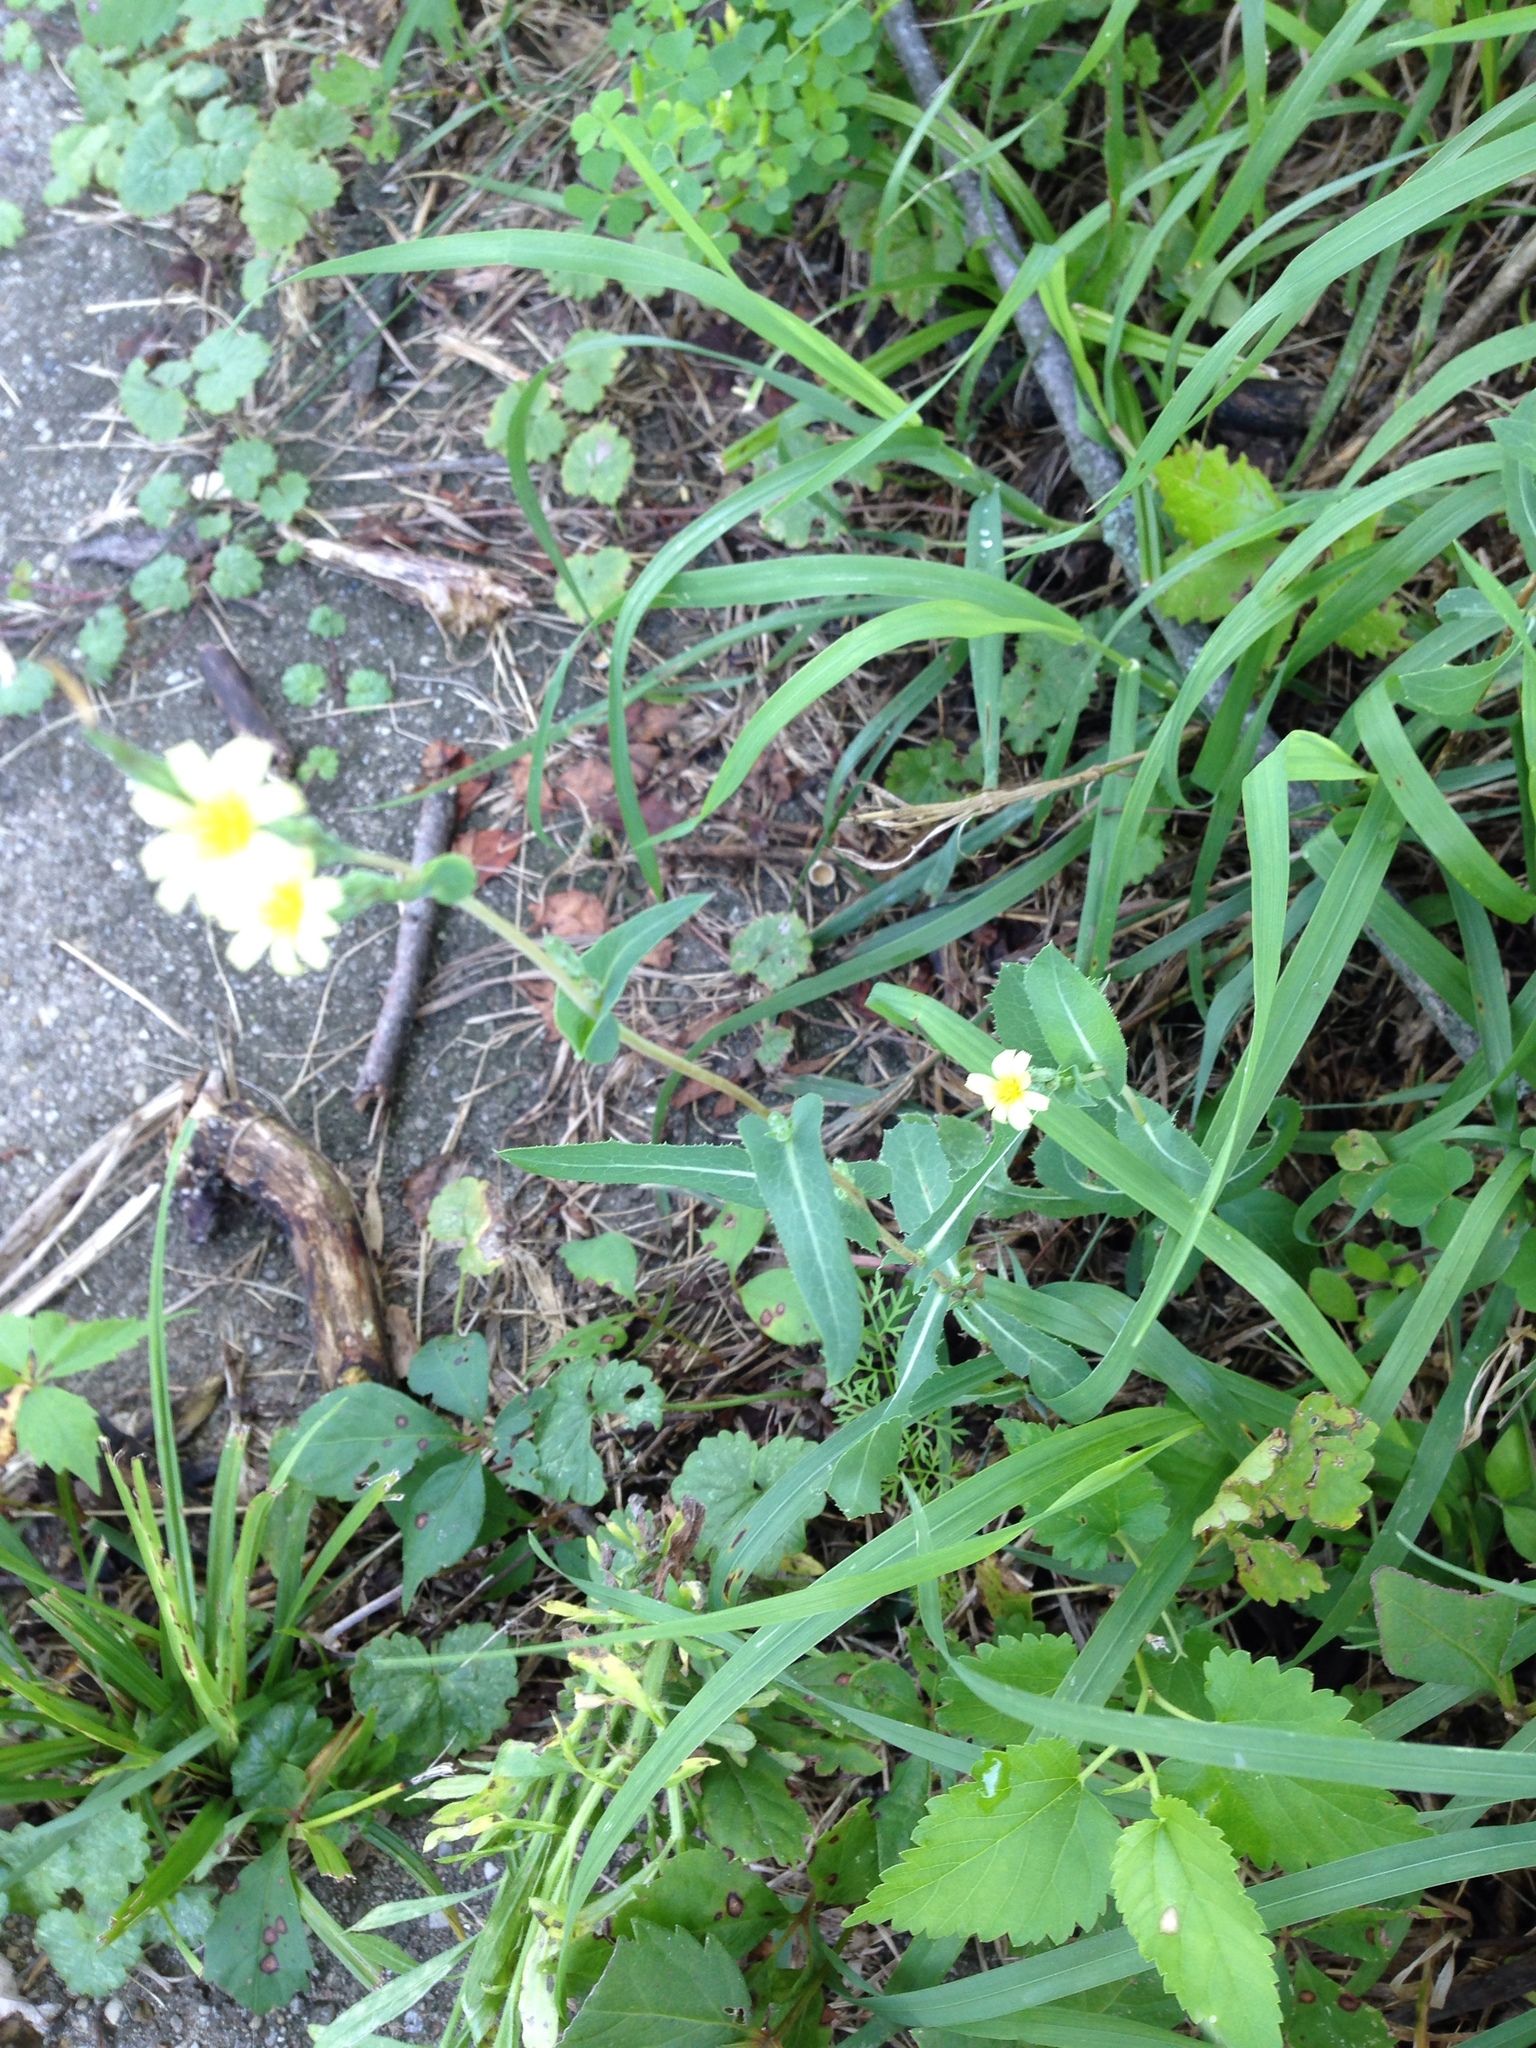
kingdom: Plantae
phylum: Tracheophyta
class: Magnoliopsida
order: Asterales
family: Asteraceae
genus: Lactuca
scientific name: Lactuca serriola
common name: Prickly lettuce
